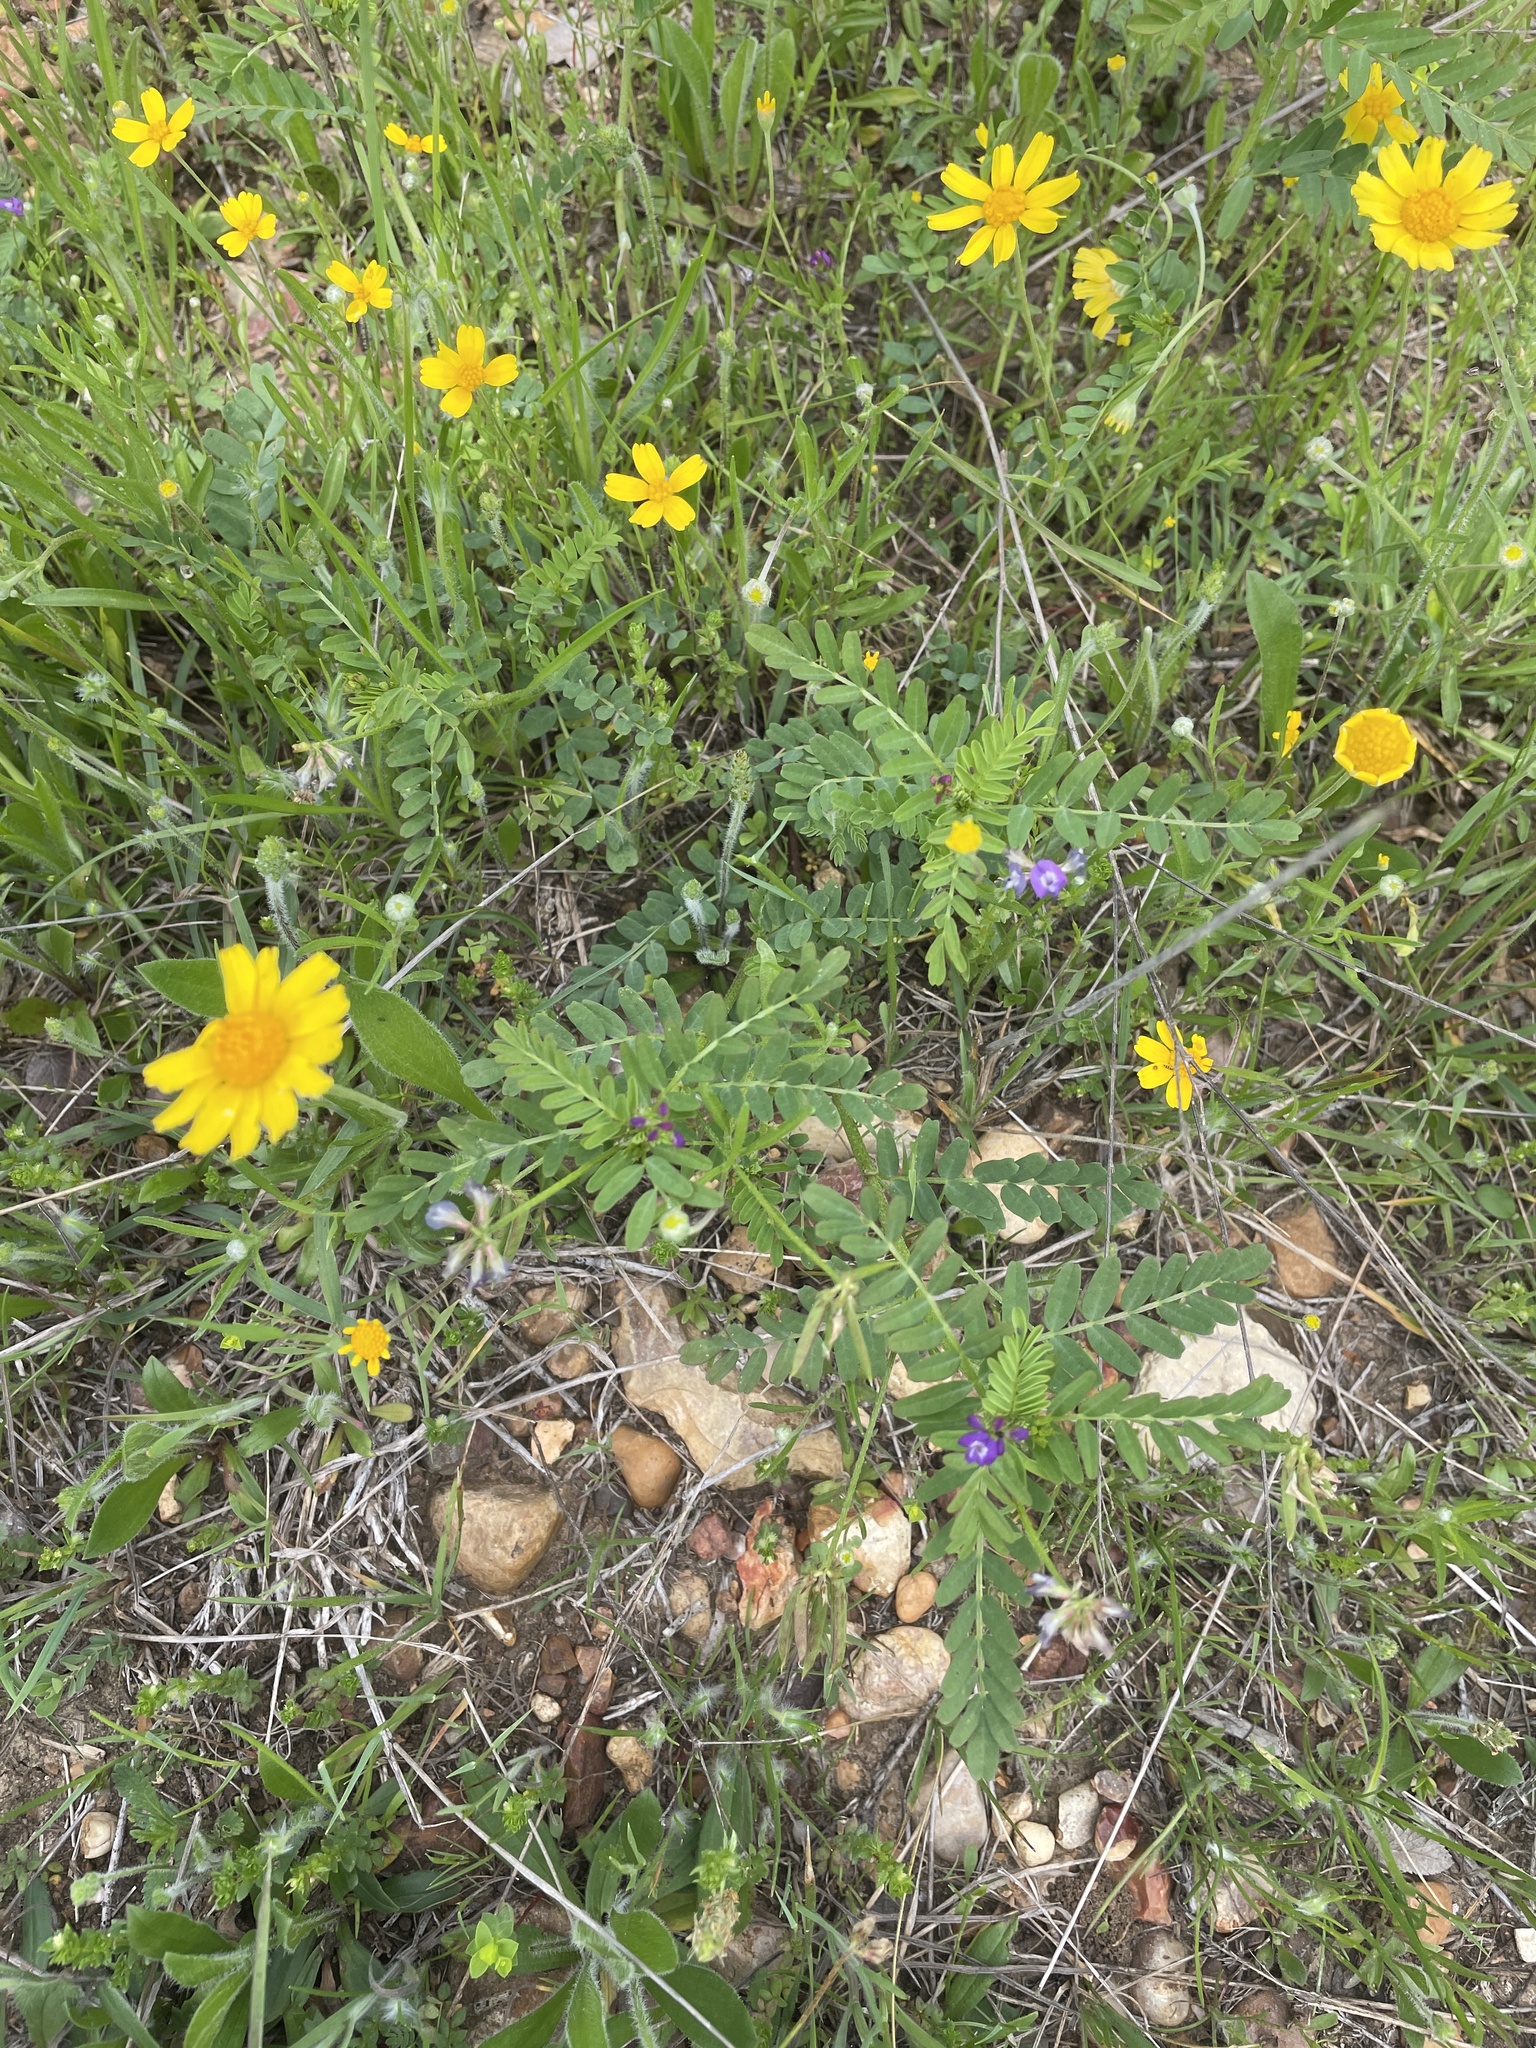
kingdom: Plantae
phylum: Tracheophyta
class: Magnoliopsida
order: Fabales
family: Fabaceae
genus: Astragalus
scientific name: Astragalus nuttallianus
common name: Smallflowered milkvetch
